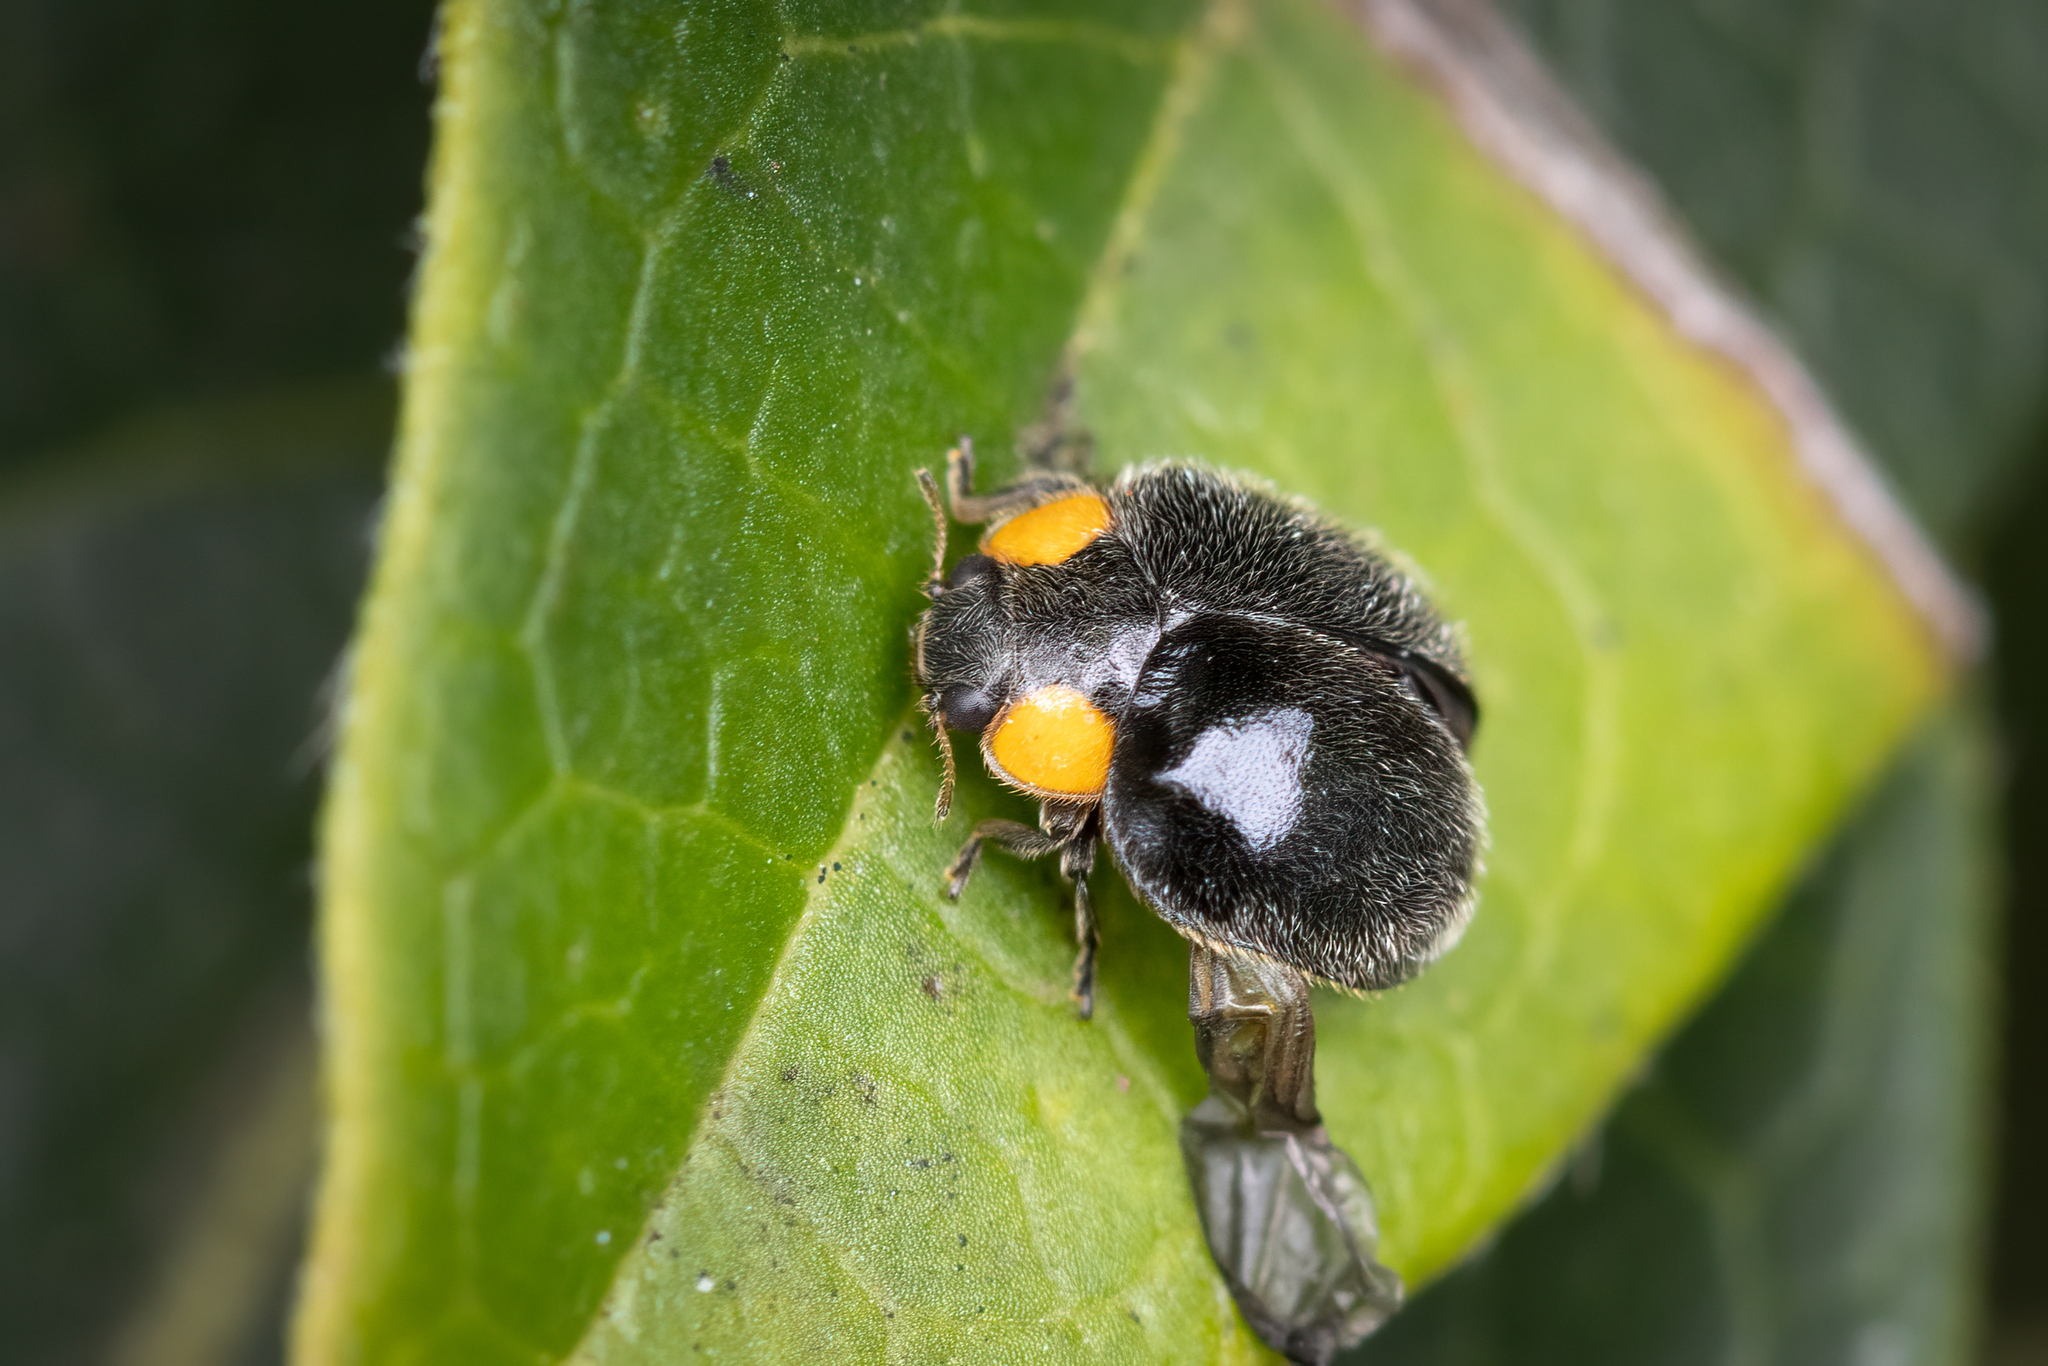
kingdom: Animalia
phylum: Arthropoda
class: Insecta
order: Coleoptera
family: Coccinellidae
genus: Scymnodes
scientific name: Scymnodes lividigaster
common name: Yellowshouldered lady beetle
